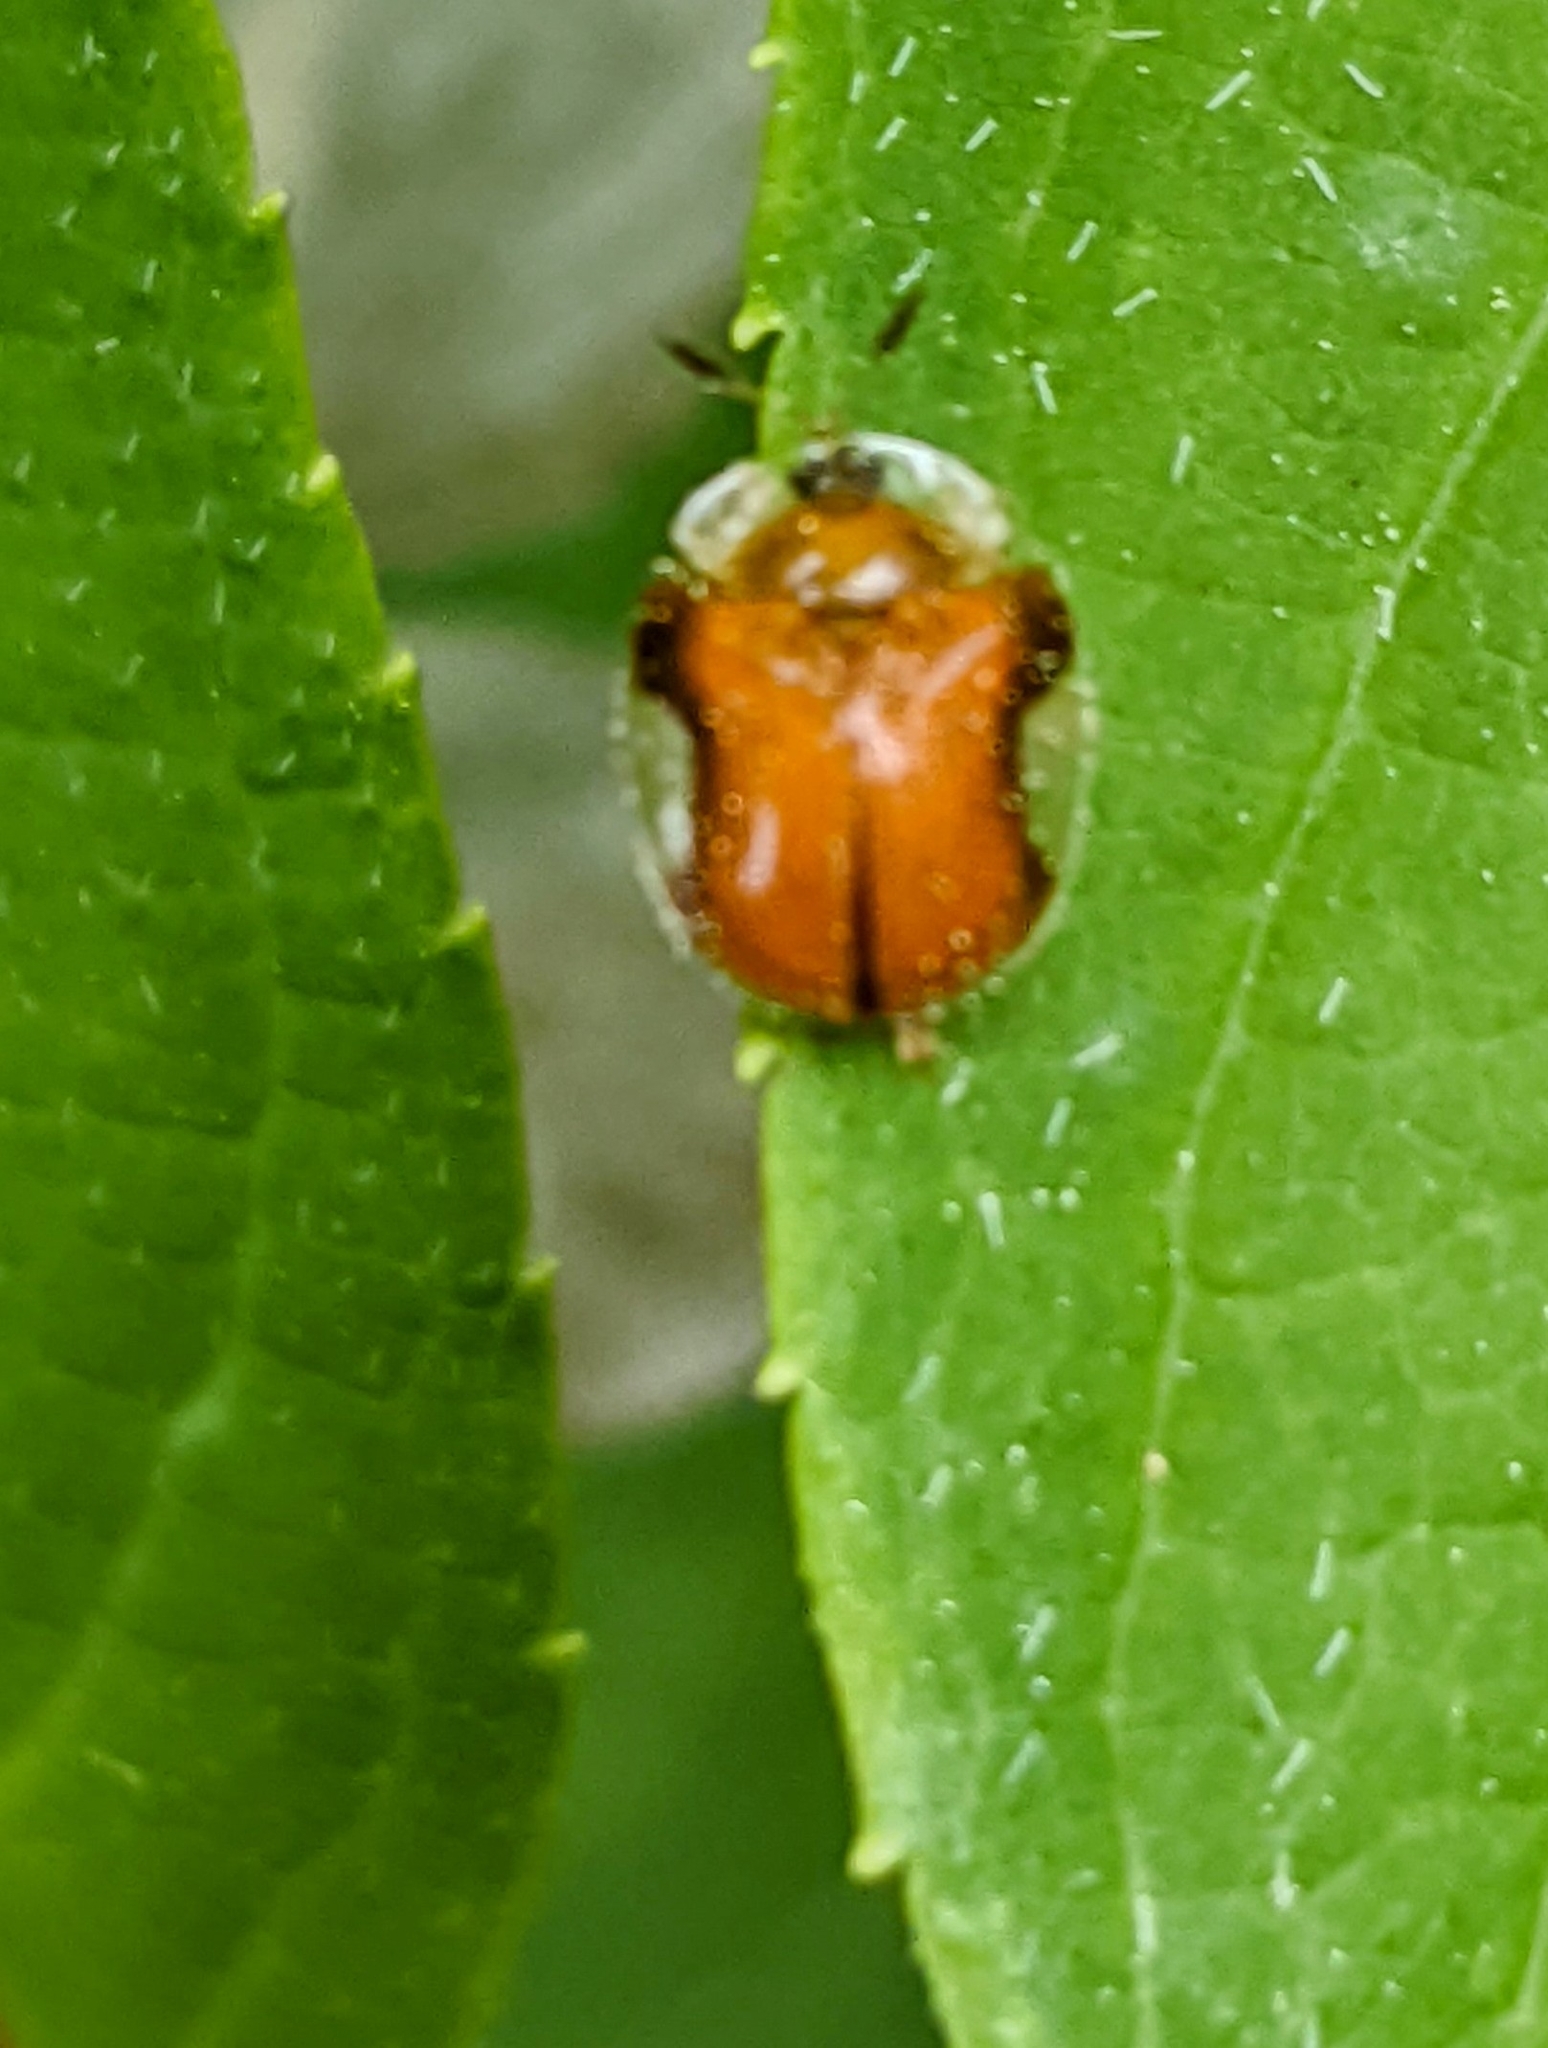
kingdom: Animalia
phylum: Arthropoda
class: Insecta
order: Coleoptera
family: Chrysomelidae
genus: Charidotella
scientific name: Charidotella purpurata
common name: Small orange tortoise beetle
